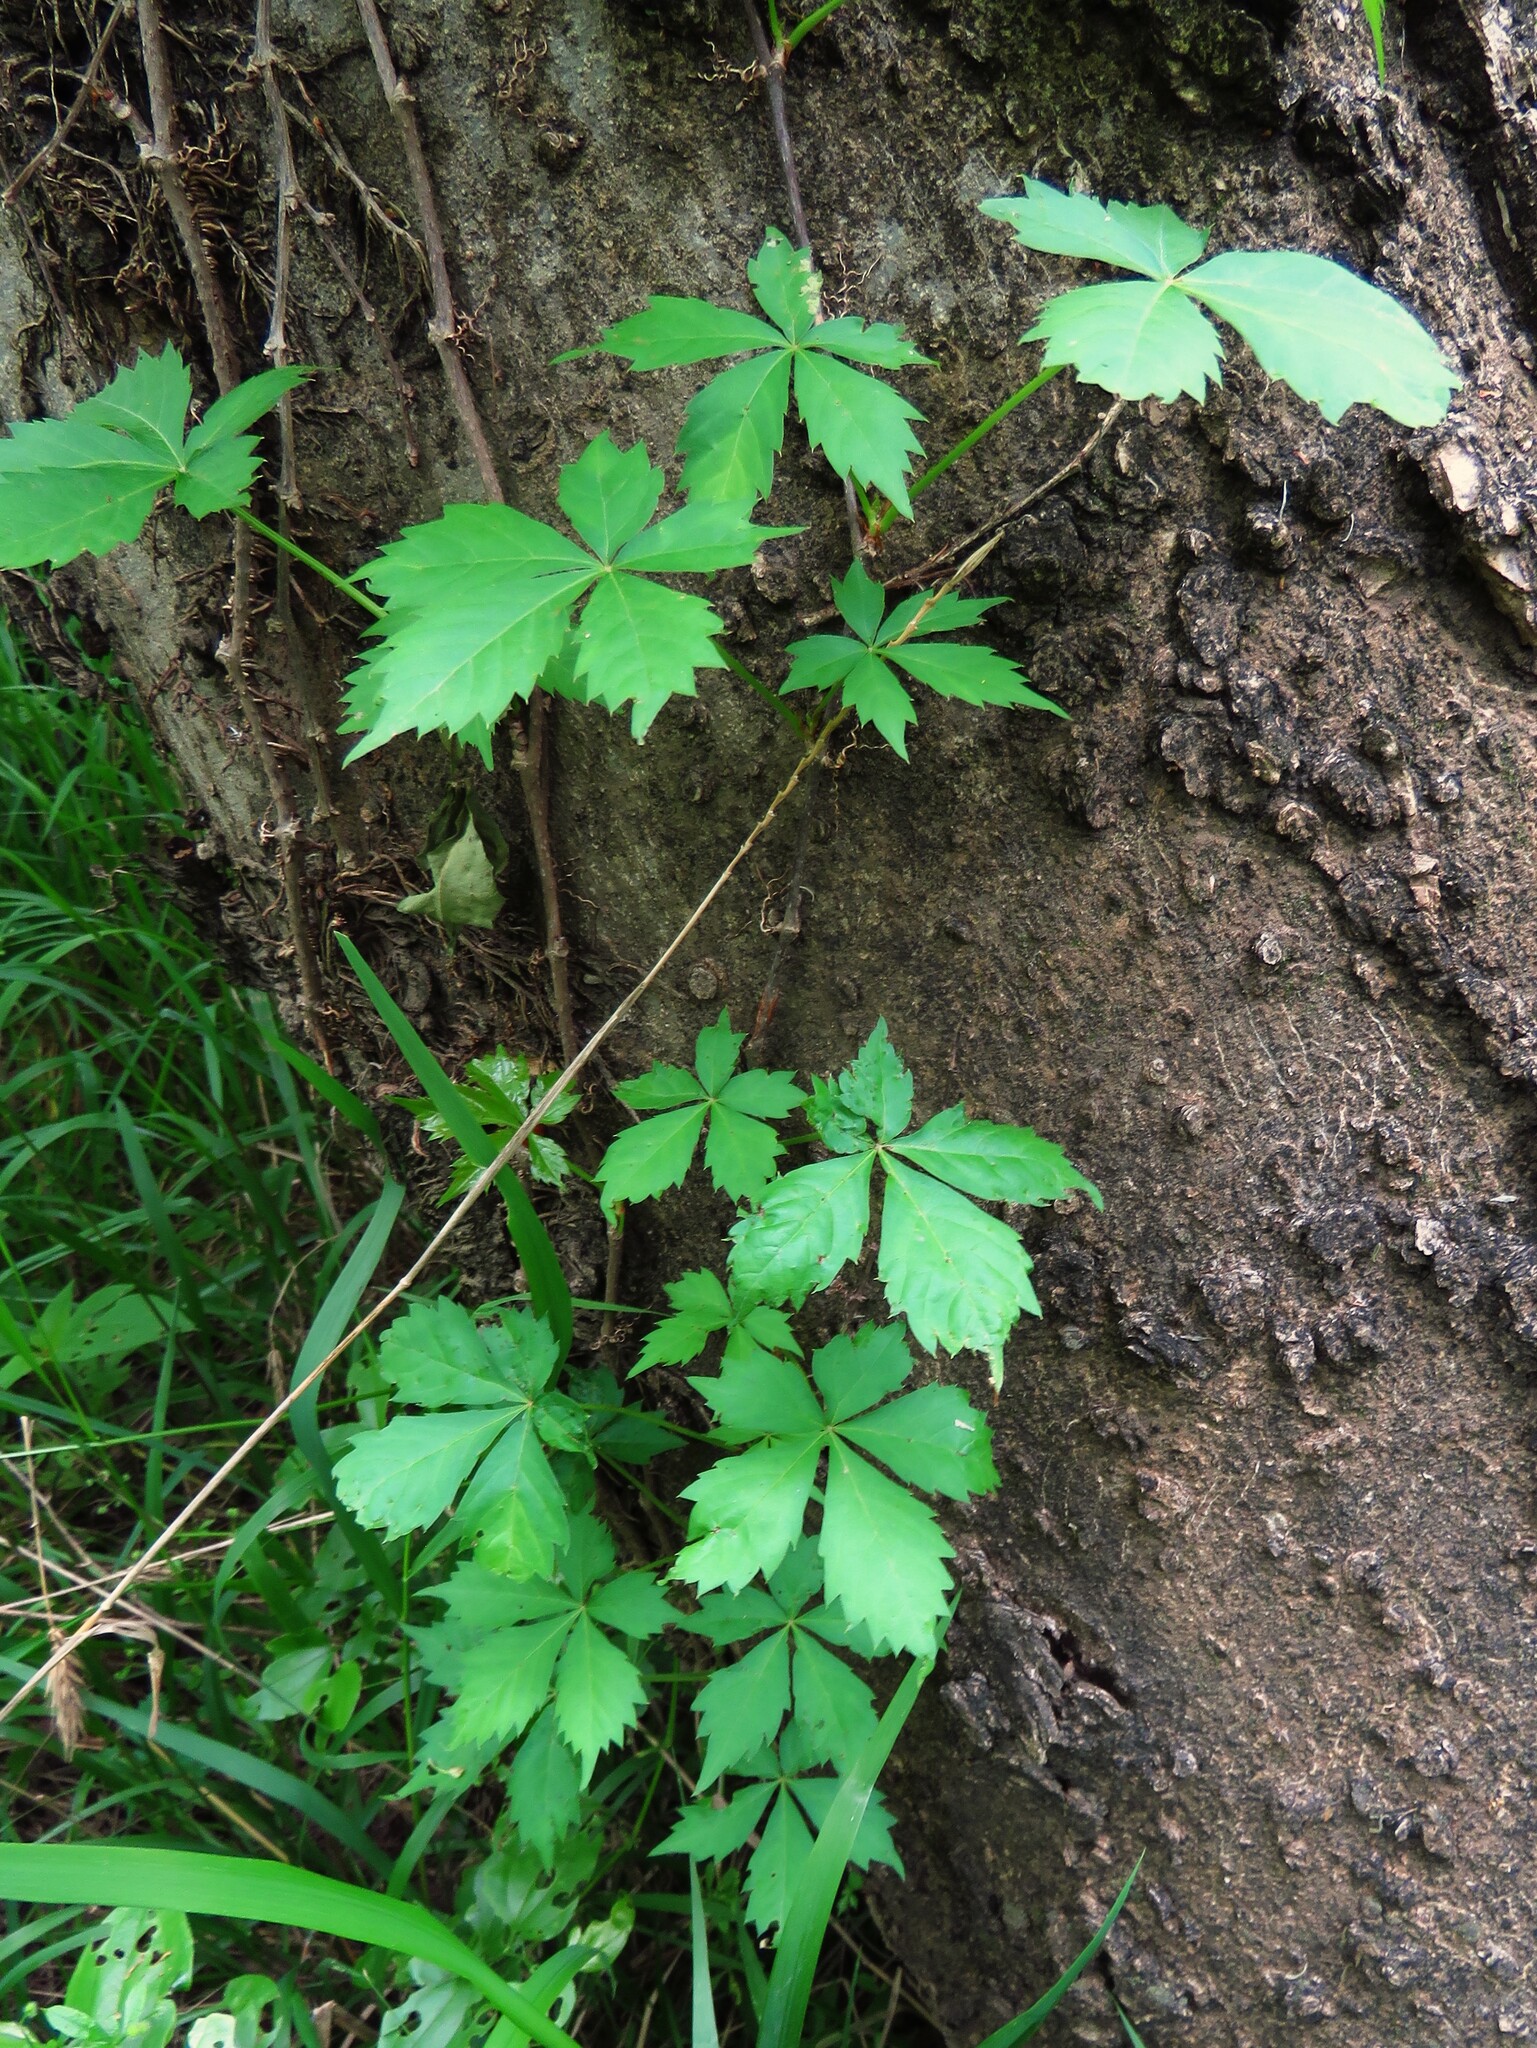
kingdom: Plantae
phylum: Tracheophyta
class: Magnoliopsida
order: Vitales
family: Vitaceae
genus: Parthenocissus
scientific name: Parthenocissus quinquefolia
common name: Virginia-creeper
